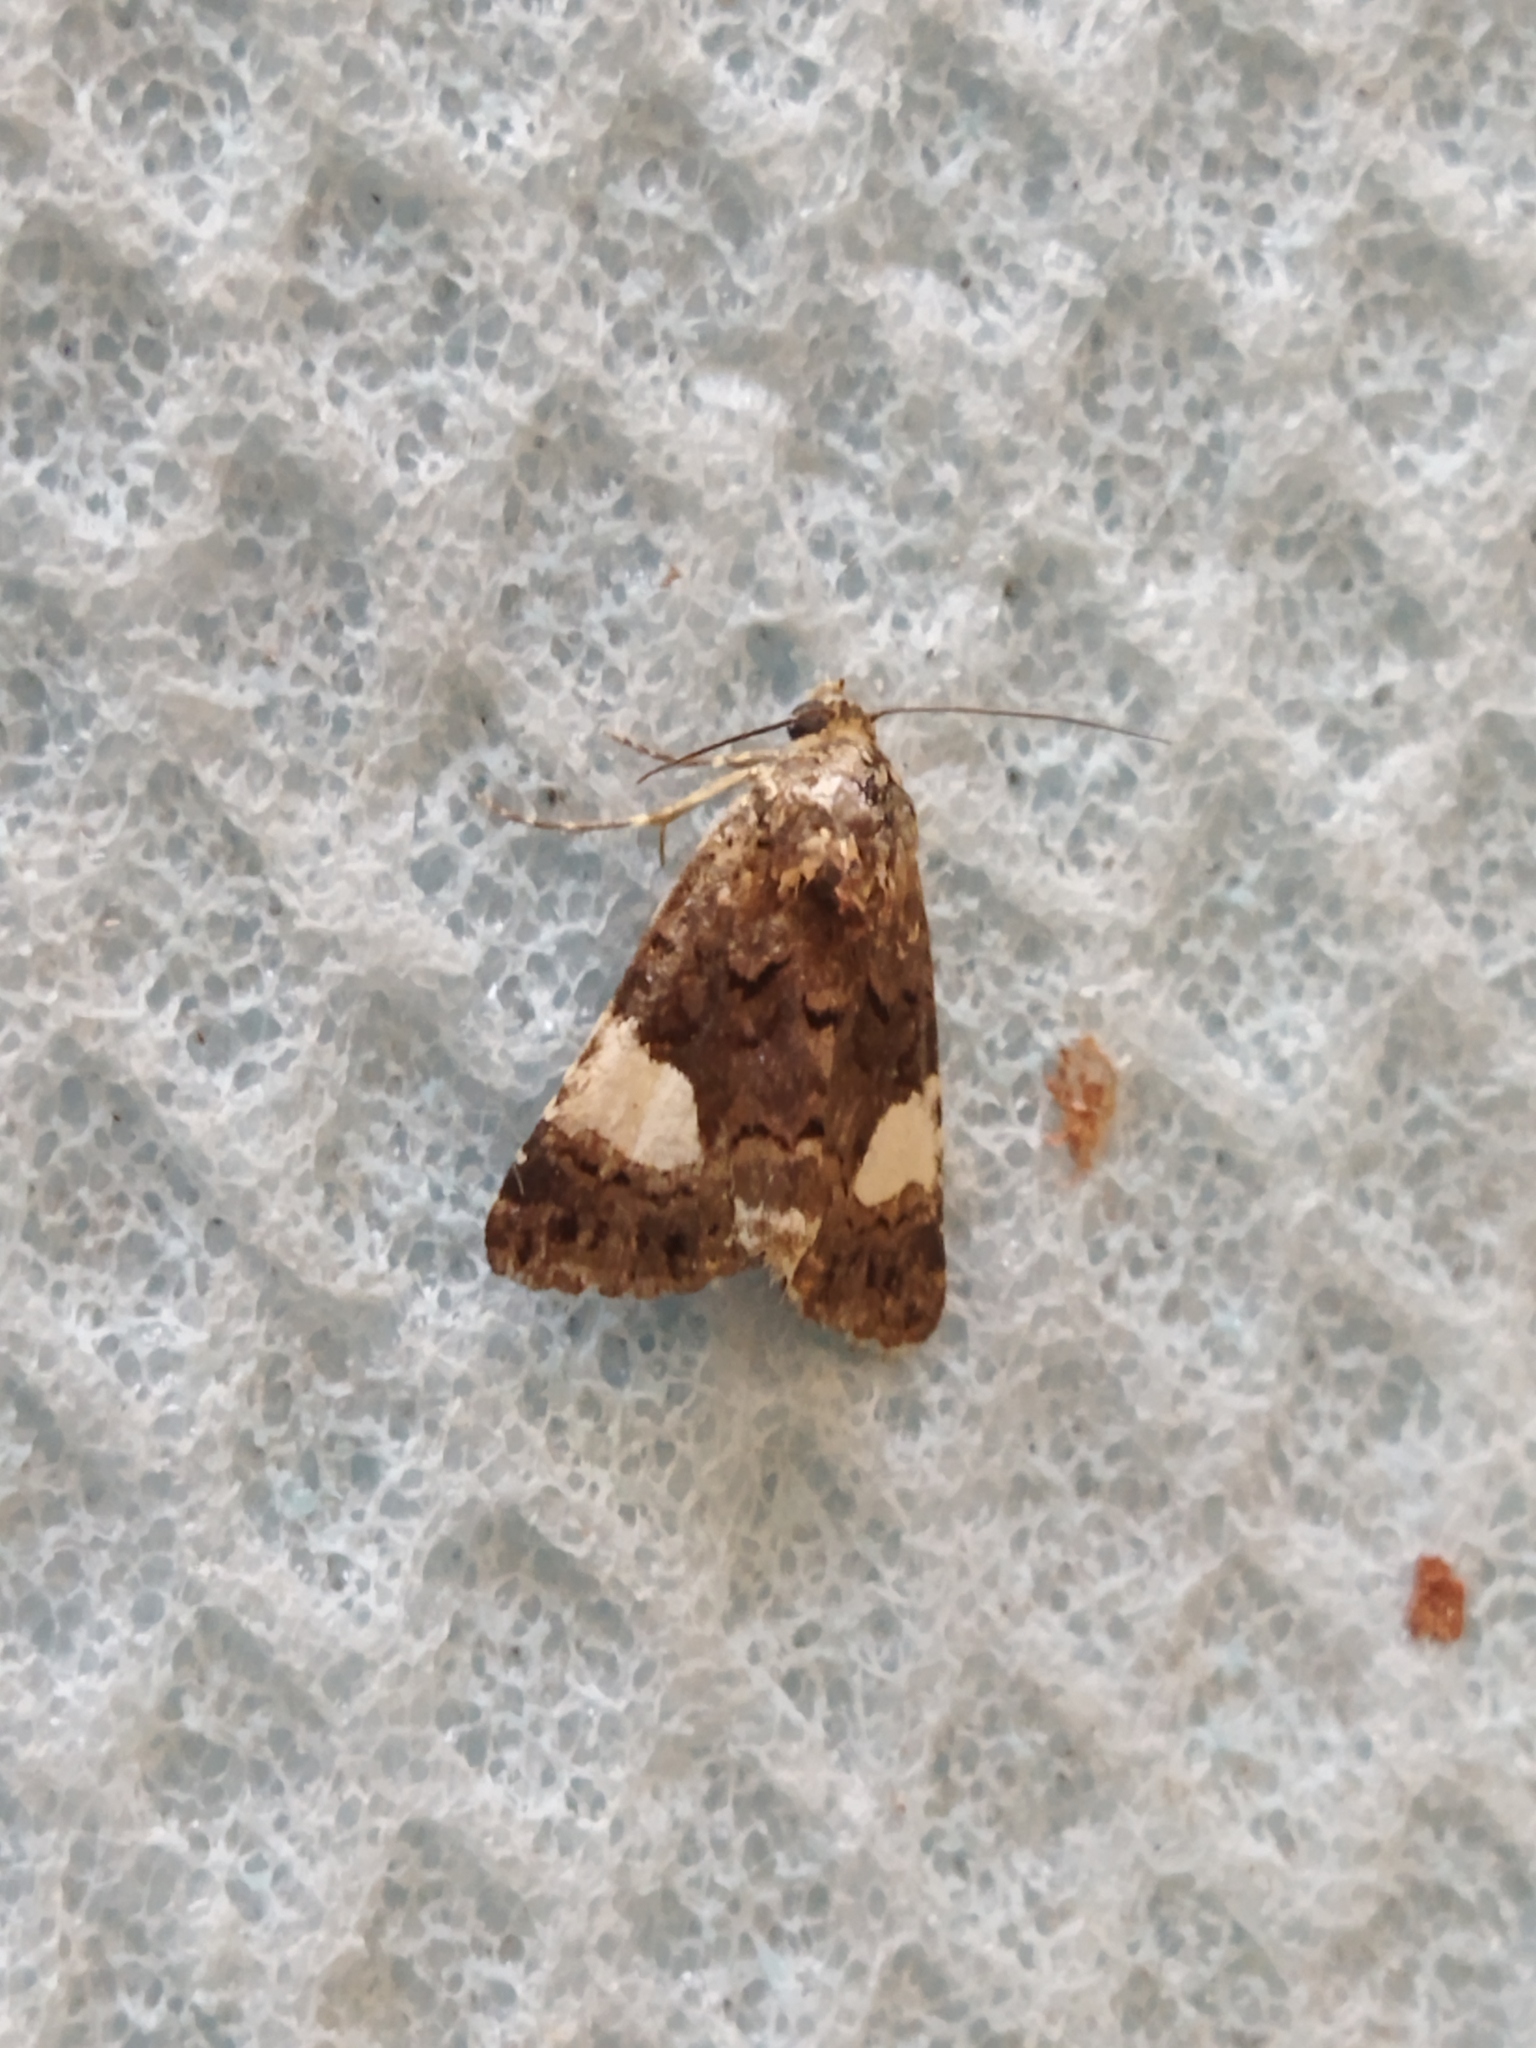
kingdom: Animalia
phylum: Arthropoda
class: Insecta
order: Lepidoptera
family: Erebidae
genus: Tyta
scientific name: Tyta luctuosa
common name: Four-spotted
